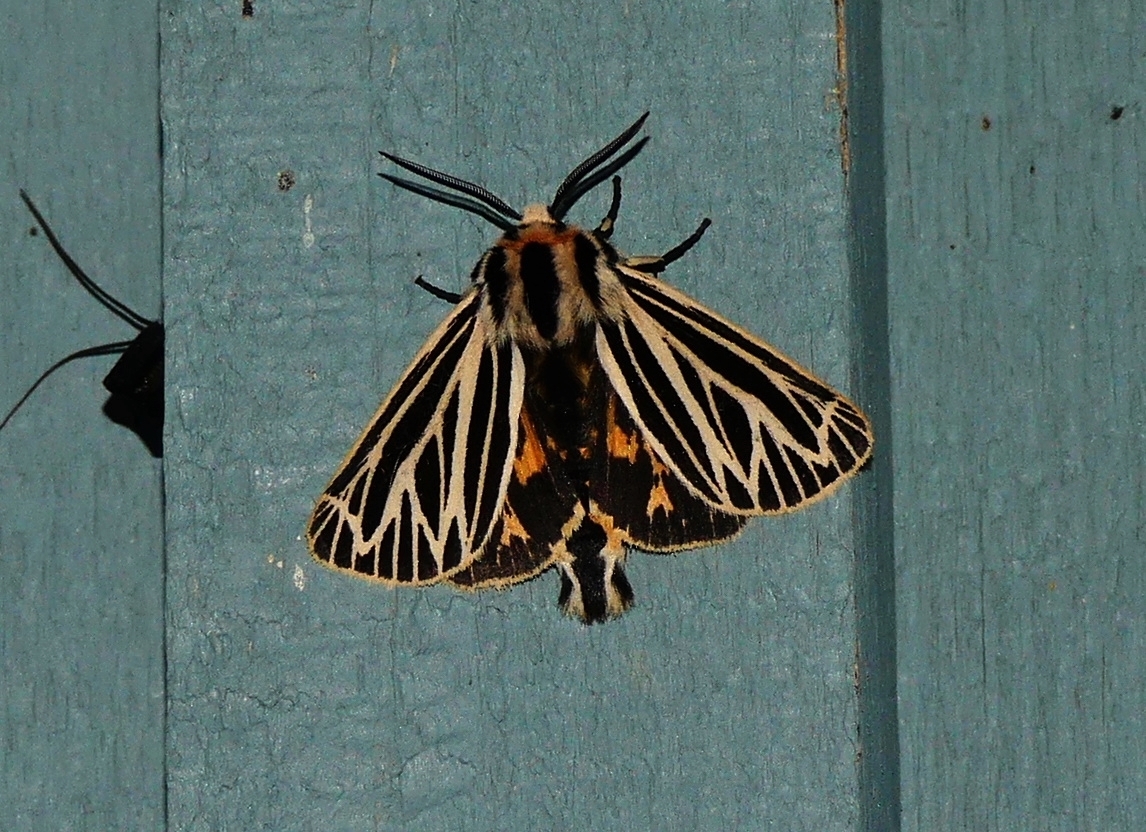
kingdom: Animalia
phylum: Arthropoda
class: Insecta
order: Lepidoptera
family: Erebidae
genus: Grammia
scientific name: Grammia virguncula
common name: Little tiger moth
